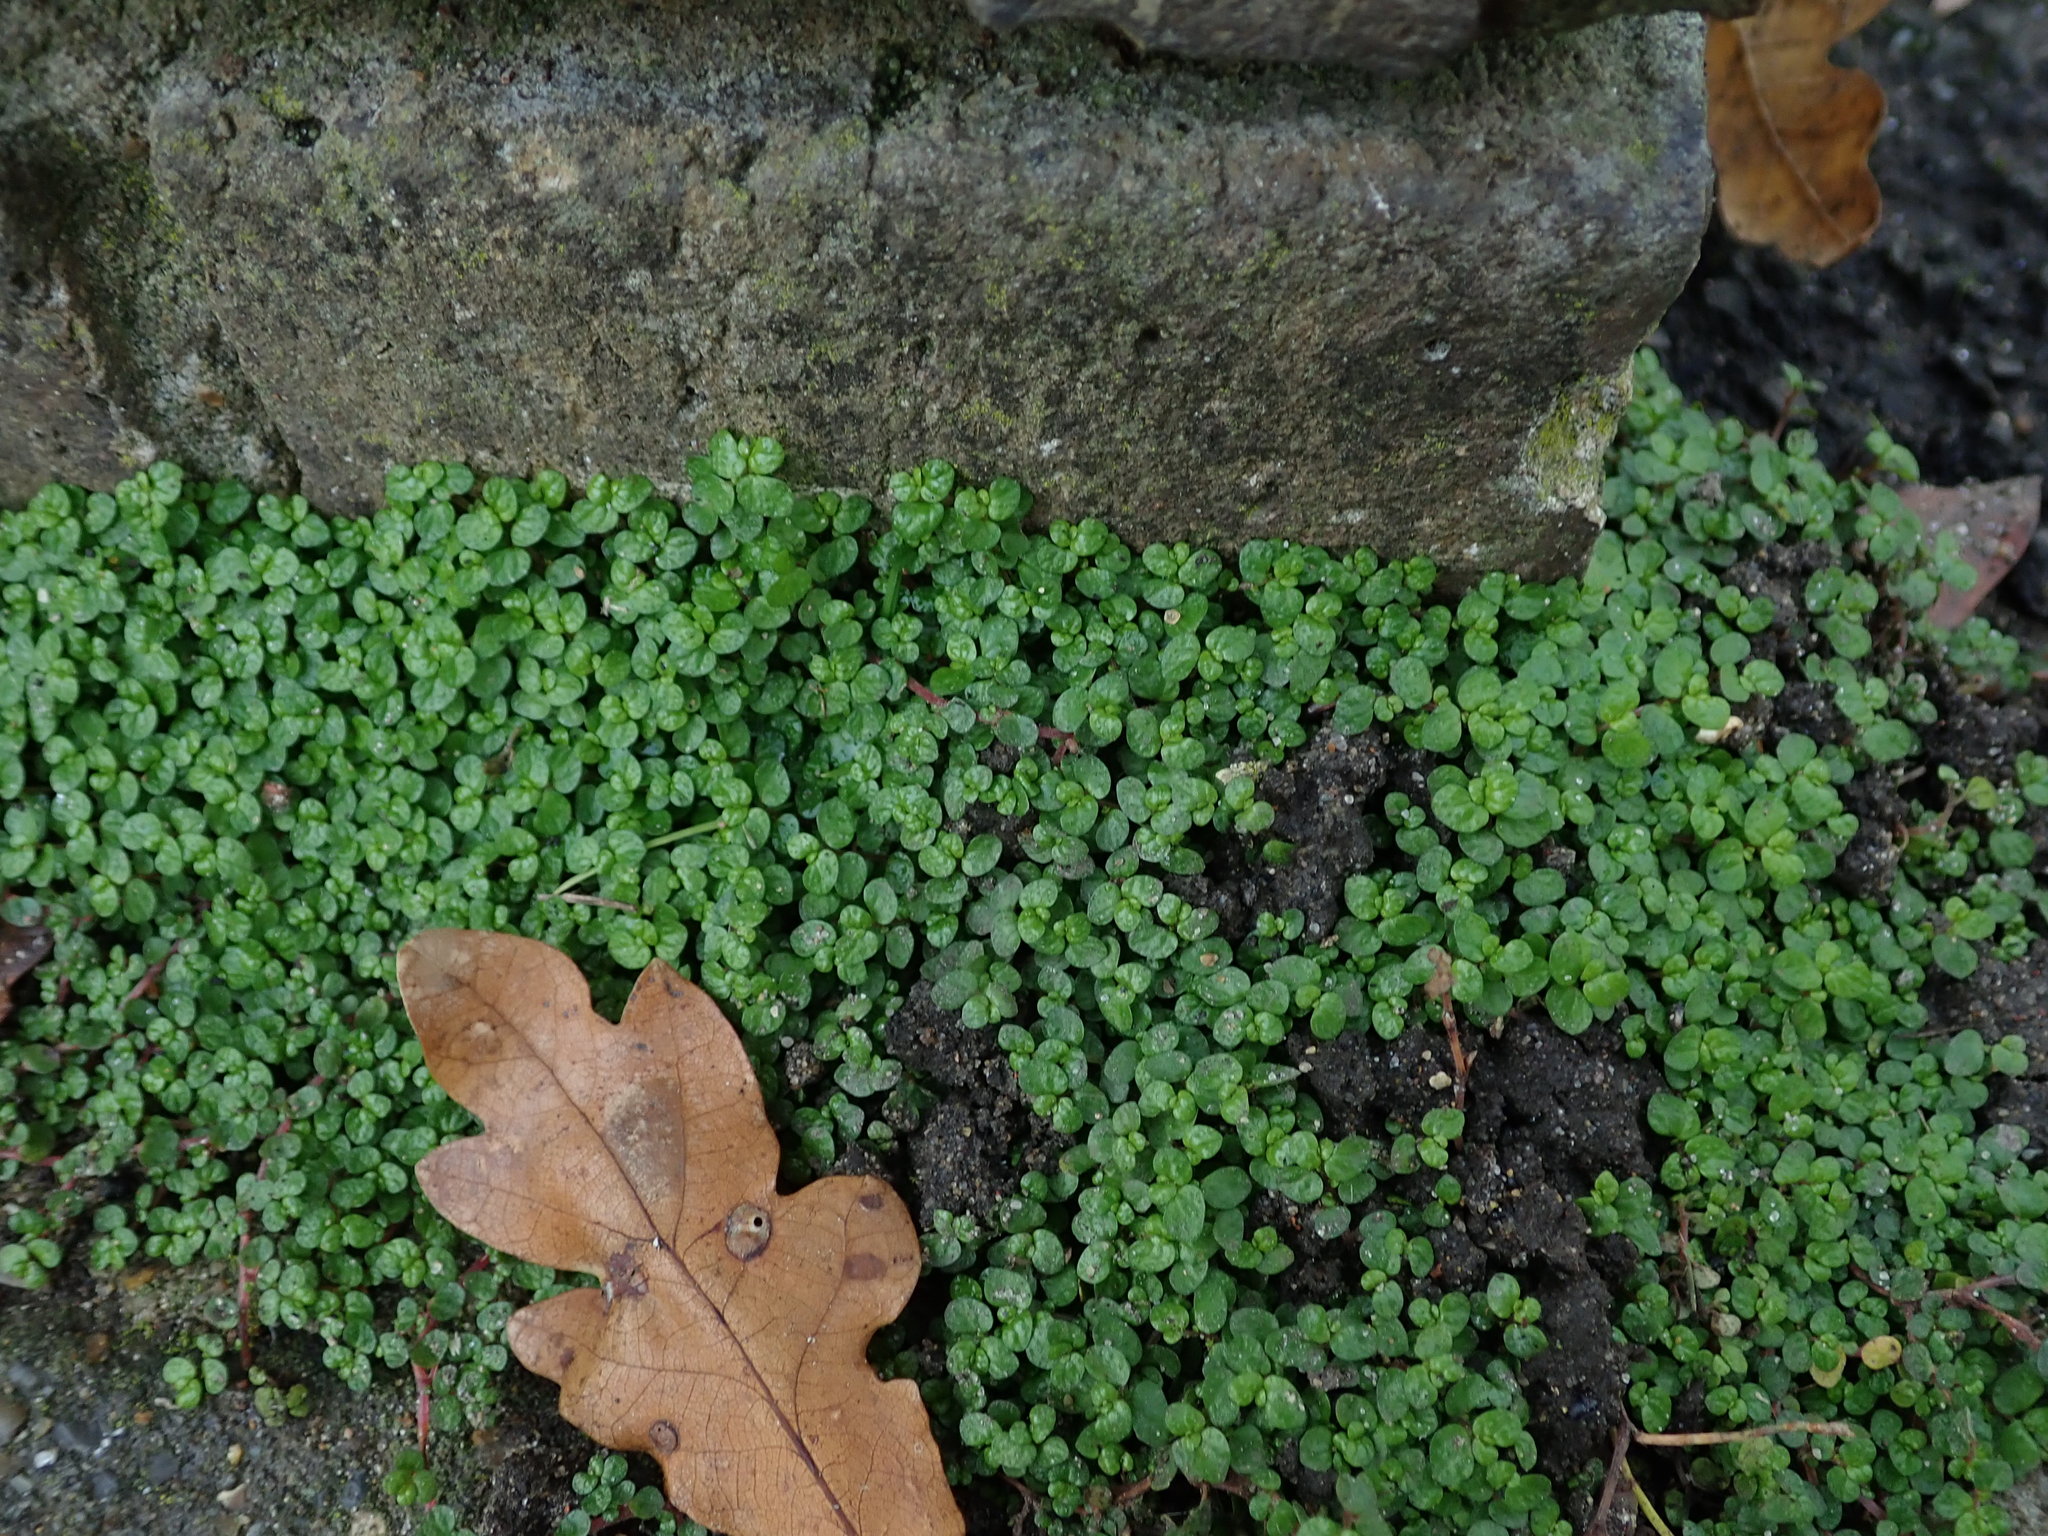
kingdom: Plantae
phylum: Tracheophyta
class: Magnoliopsida
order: Rosales
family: Urticaceae
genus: Soleirolia
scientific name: Soleirolia soleirolii
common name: Mind-your-own-business
